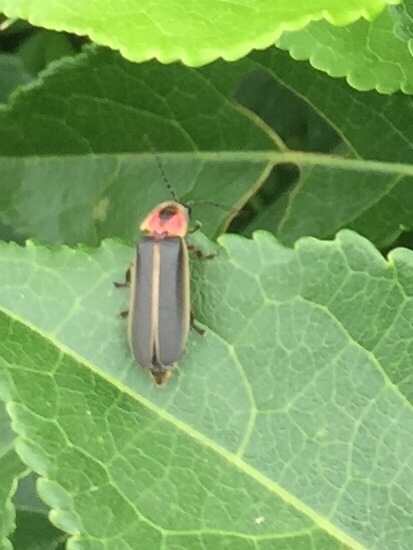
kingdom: Animalia
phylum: Arthropoda
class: Insecta
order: Coleoptera
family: Lampyridae
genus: Photinus
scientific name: Photinus pyralis
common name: Big dipper firefly
